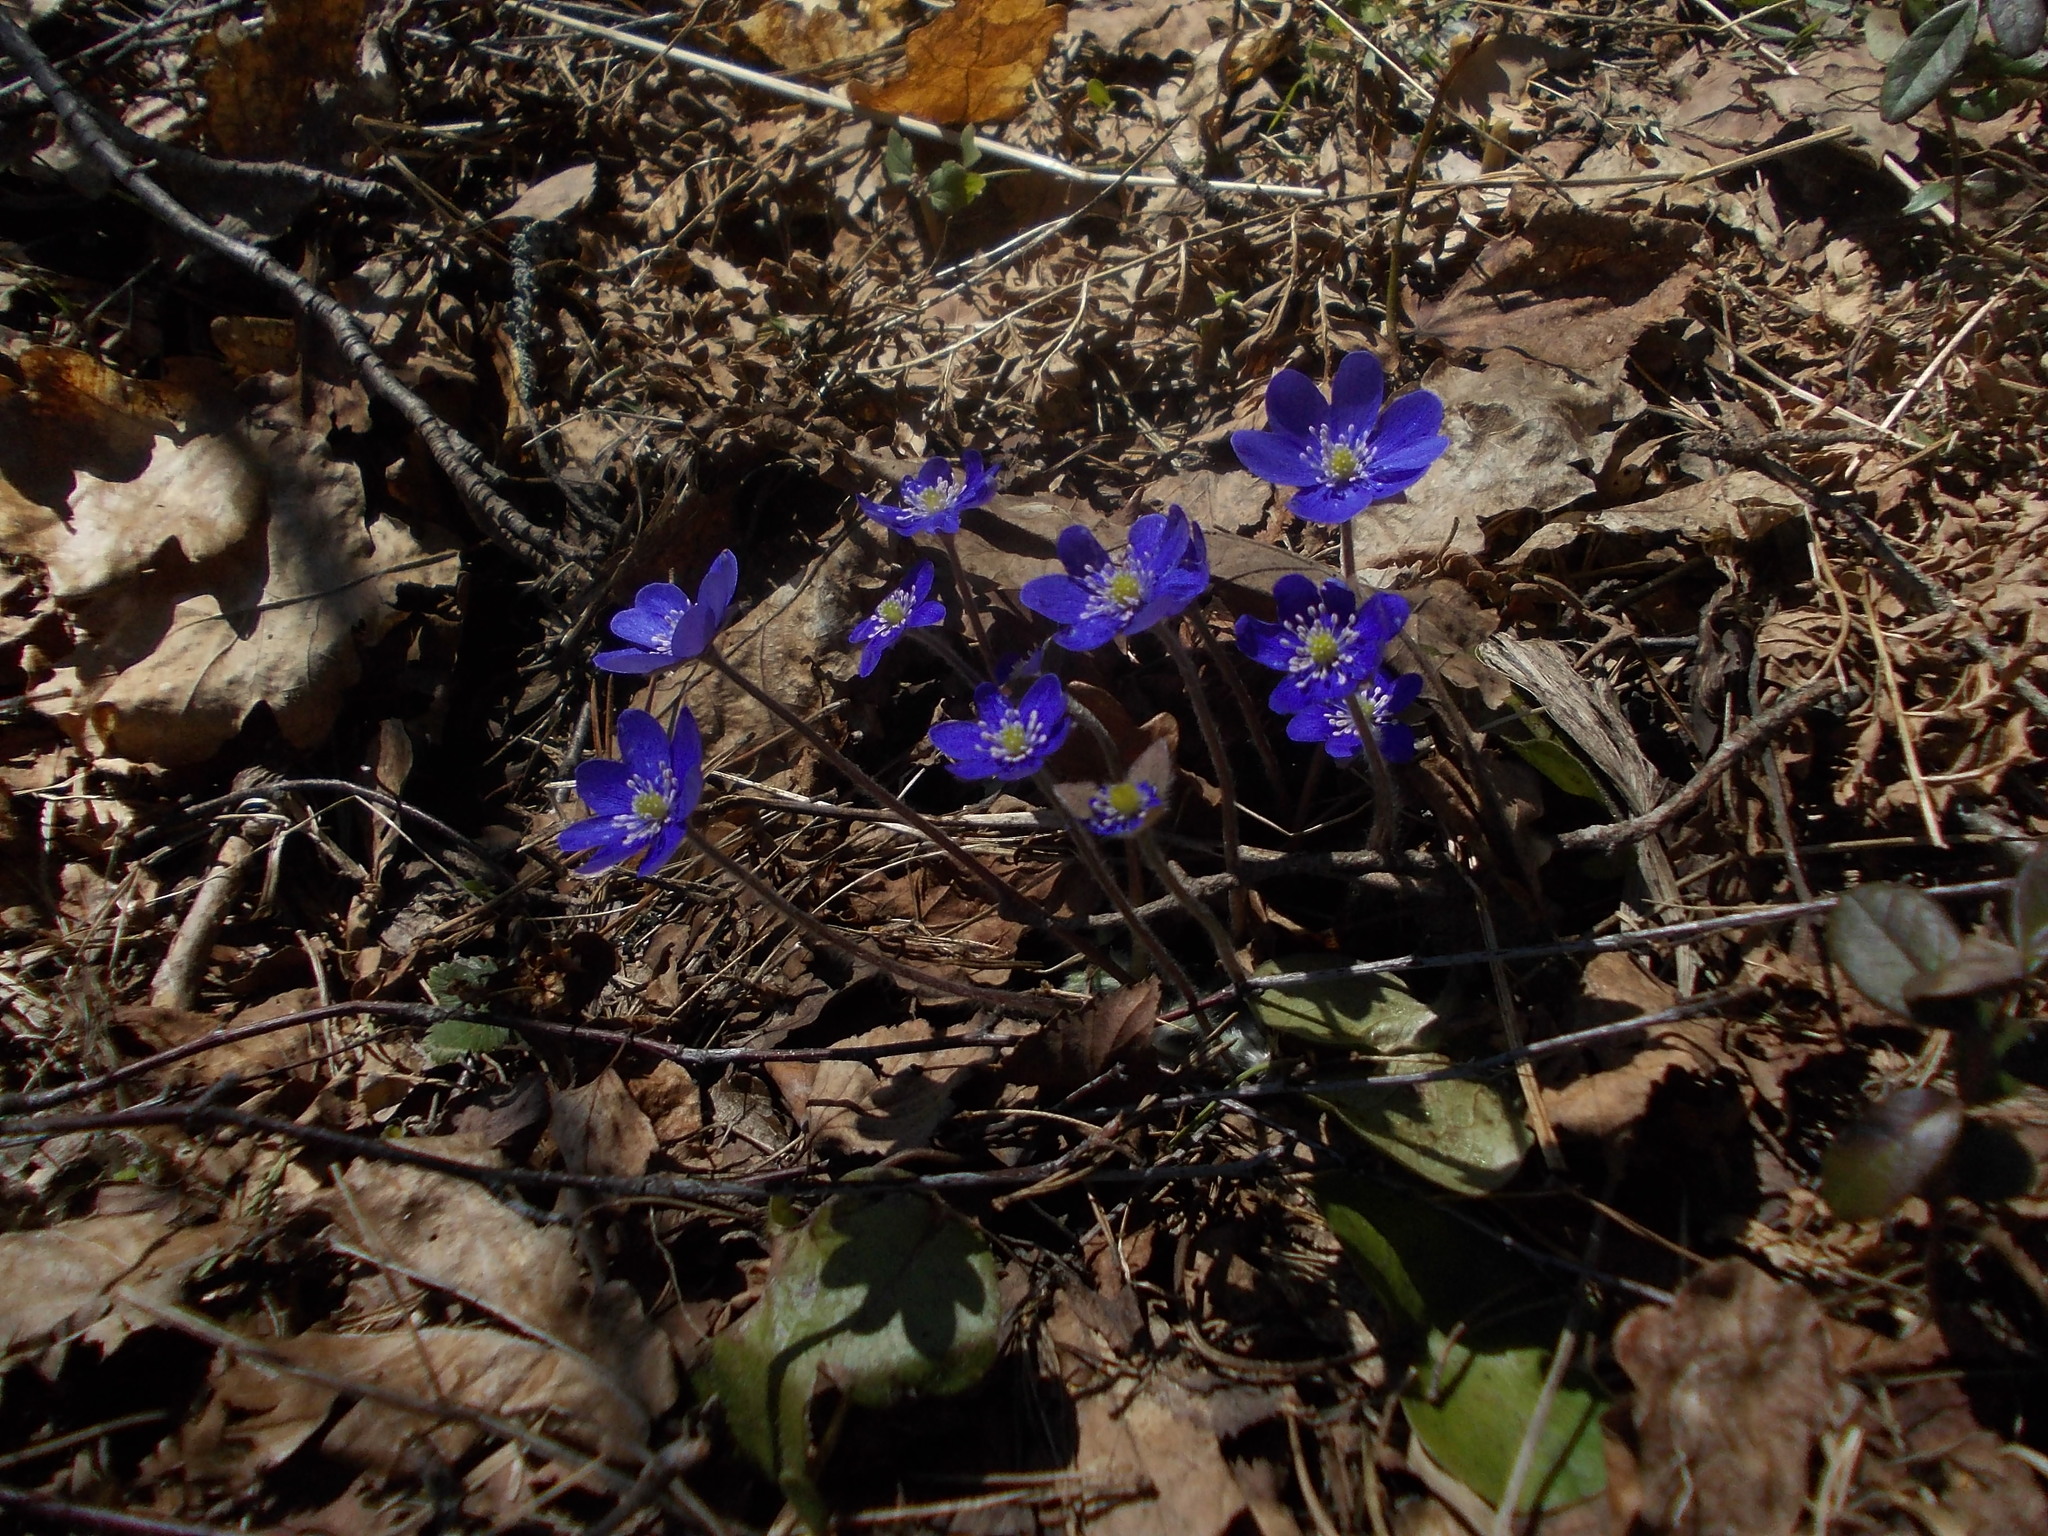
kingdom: Plantae
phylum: Tracheophyta
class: Magnoliopsida
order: Ranunculales
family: Ranunculaceae
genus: Hepatica
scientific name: Hepatica nobilis
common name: Liverleaf
